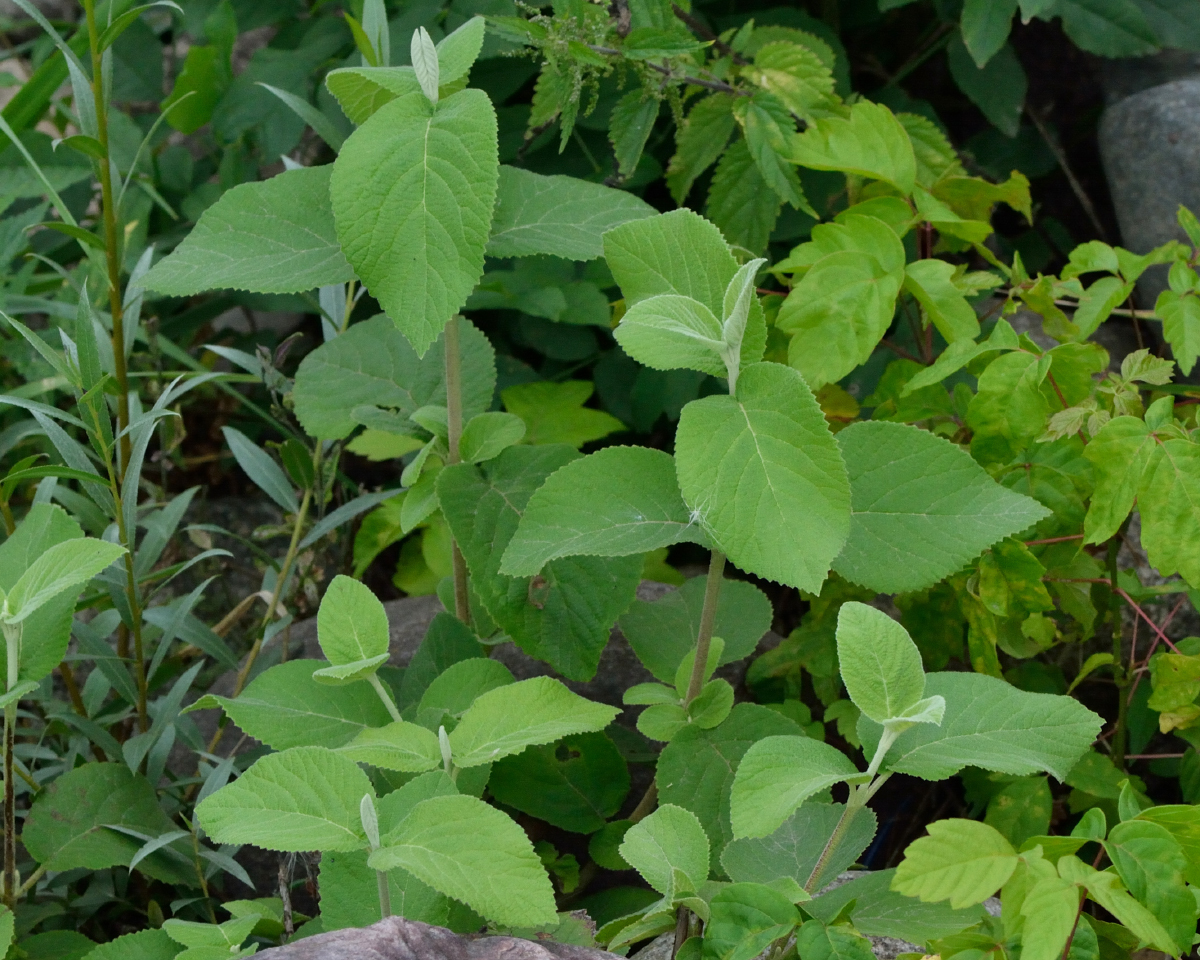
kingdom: Plantae
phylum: Tracheophyta
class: Magnoliopsida
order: Dipsacales
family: Viburnaceae
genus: Viburnum
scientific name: Viburnum lantana
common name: Wayfaring tree
